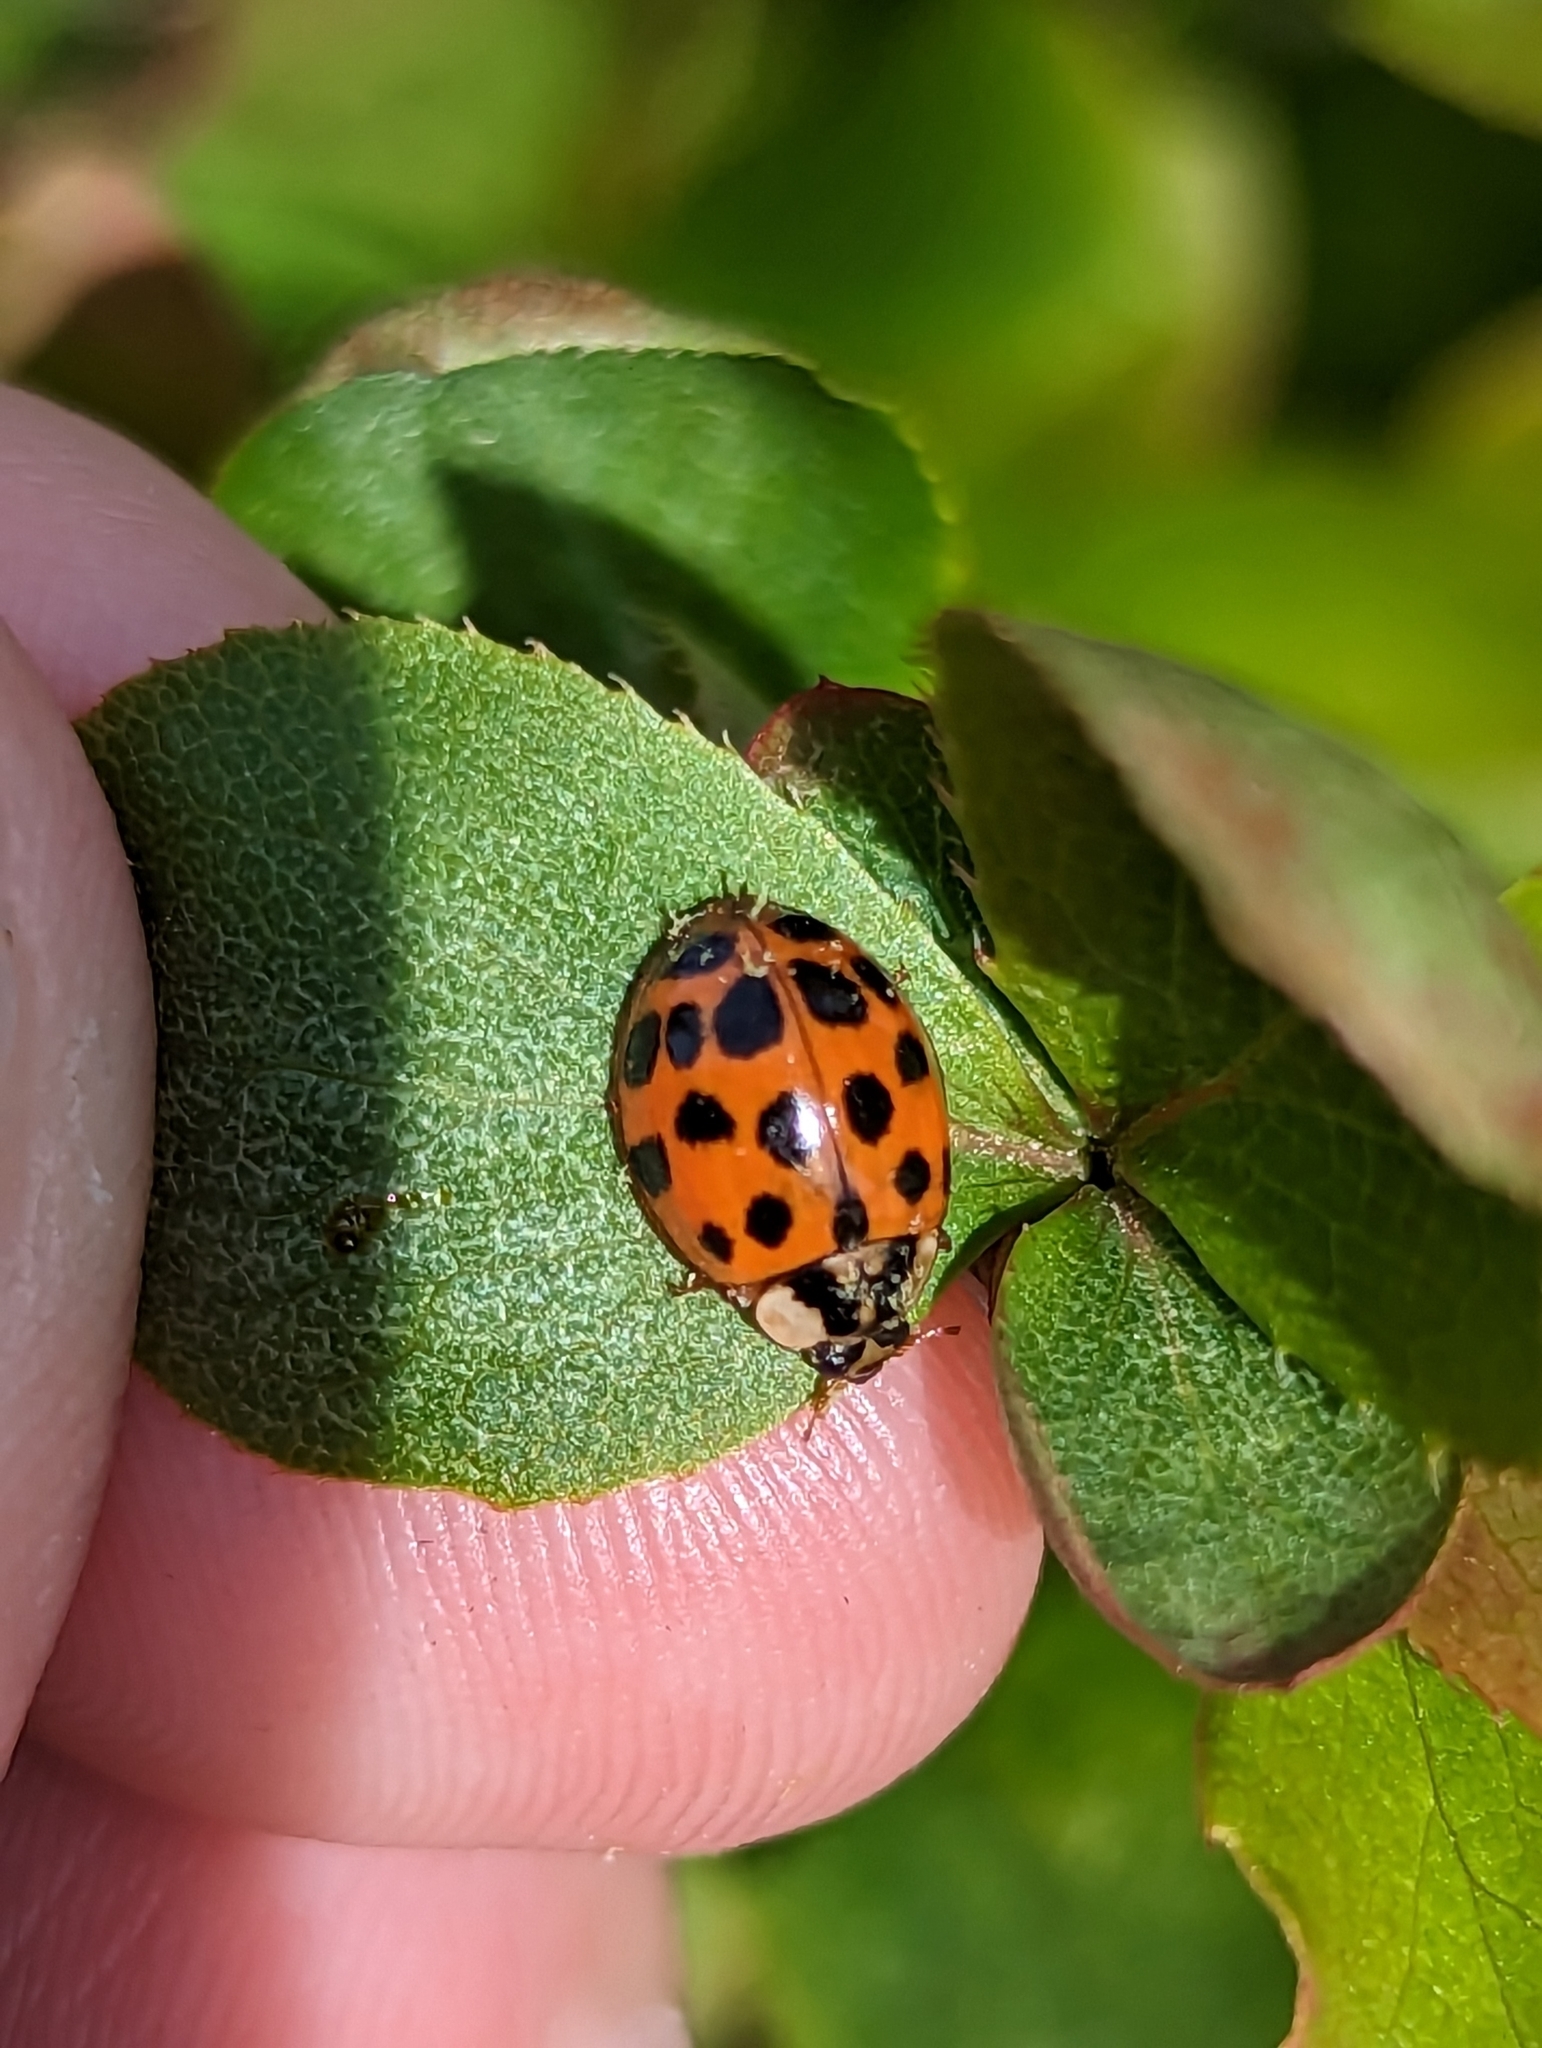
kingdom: Fungi
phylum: Ascomycota
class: Laboulbeniomycetes
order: Laboulbeniales
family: Laboulbeniaceae
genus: Hesperomyces
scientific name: Hesperomyces harmoniae
